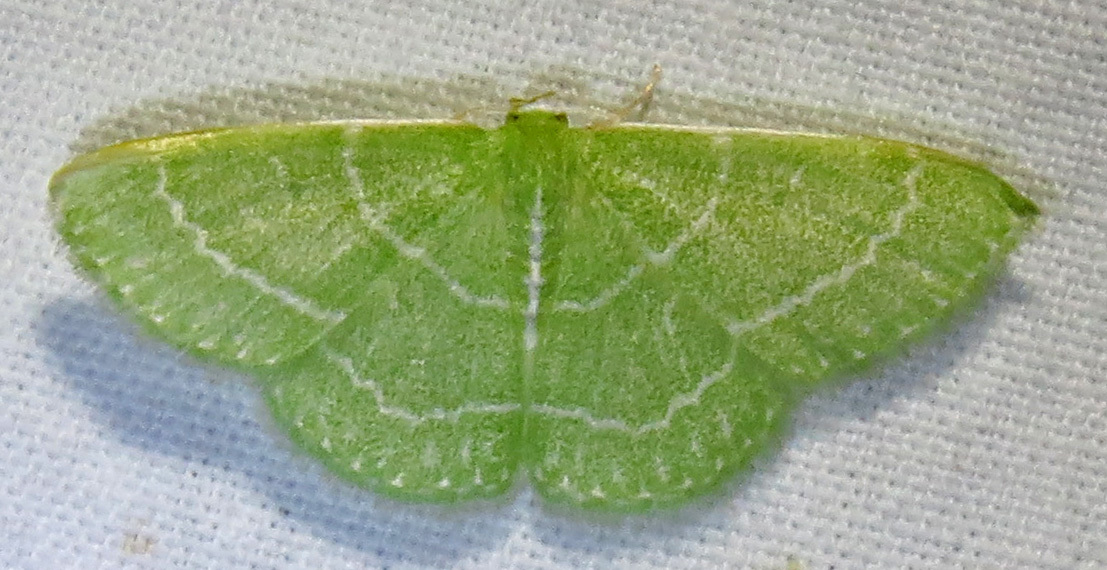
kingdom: Animalia
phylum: Arthropoda
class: Insecta
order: Lepidoptera
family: Geometridae
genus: Synchlora
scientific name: Synchlora aerata
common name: Wavy-lined emerald
